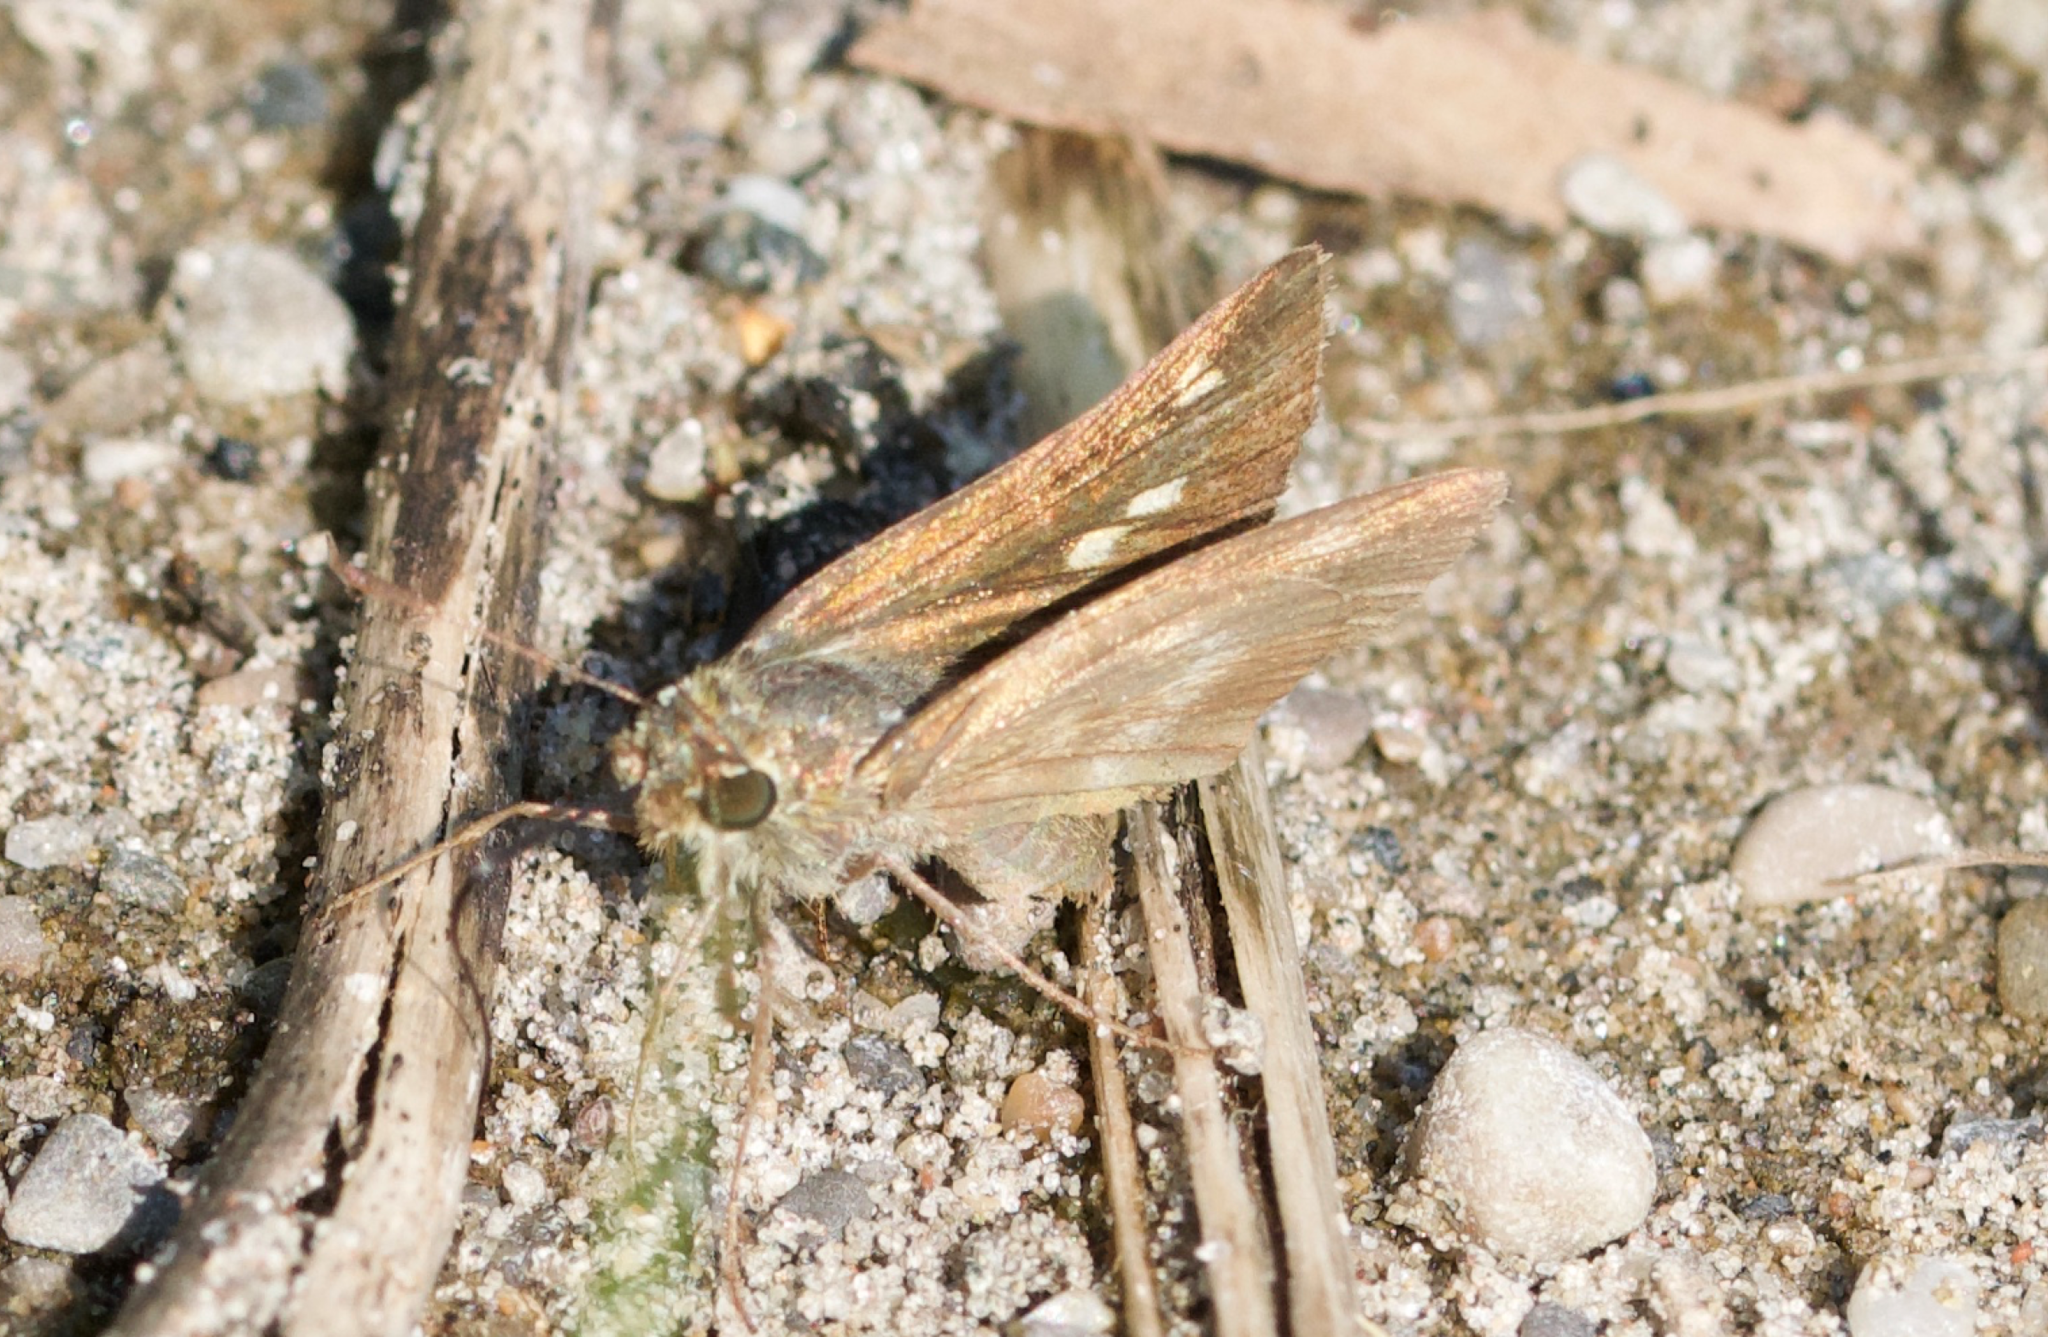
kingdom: Animalia
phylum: Arthropoda
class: Insecta
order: Lepidoptera
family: Hesperiidae
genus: Polites
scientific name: Polites egeremet
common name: Northern broken-dash
